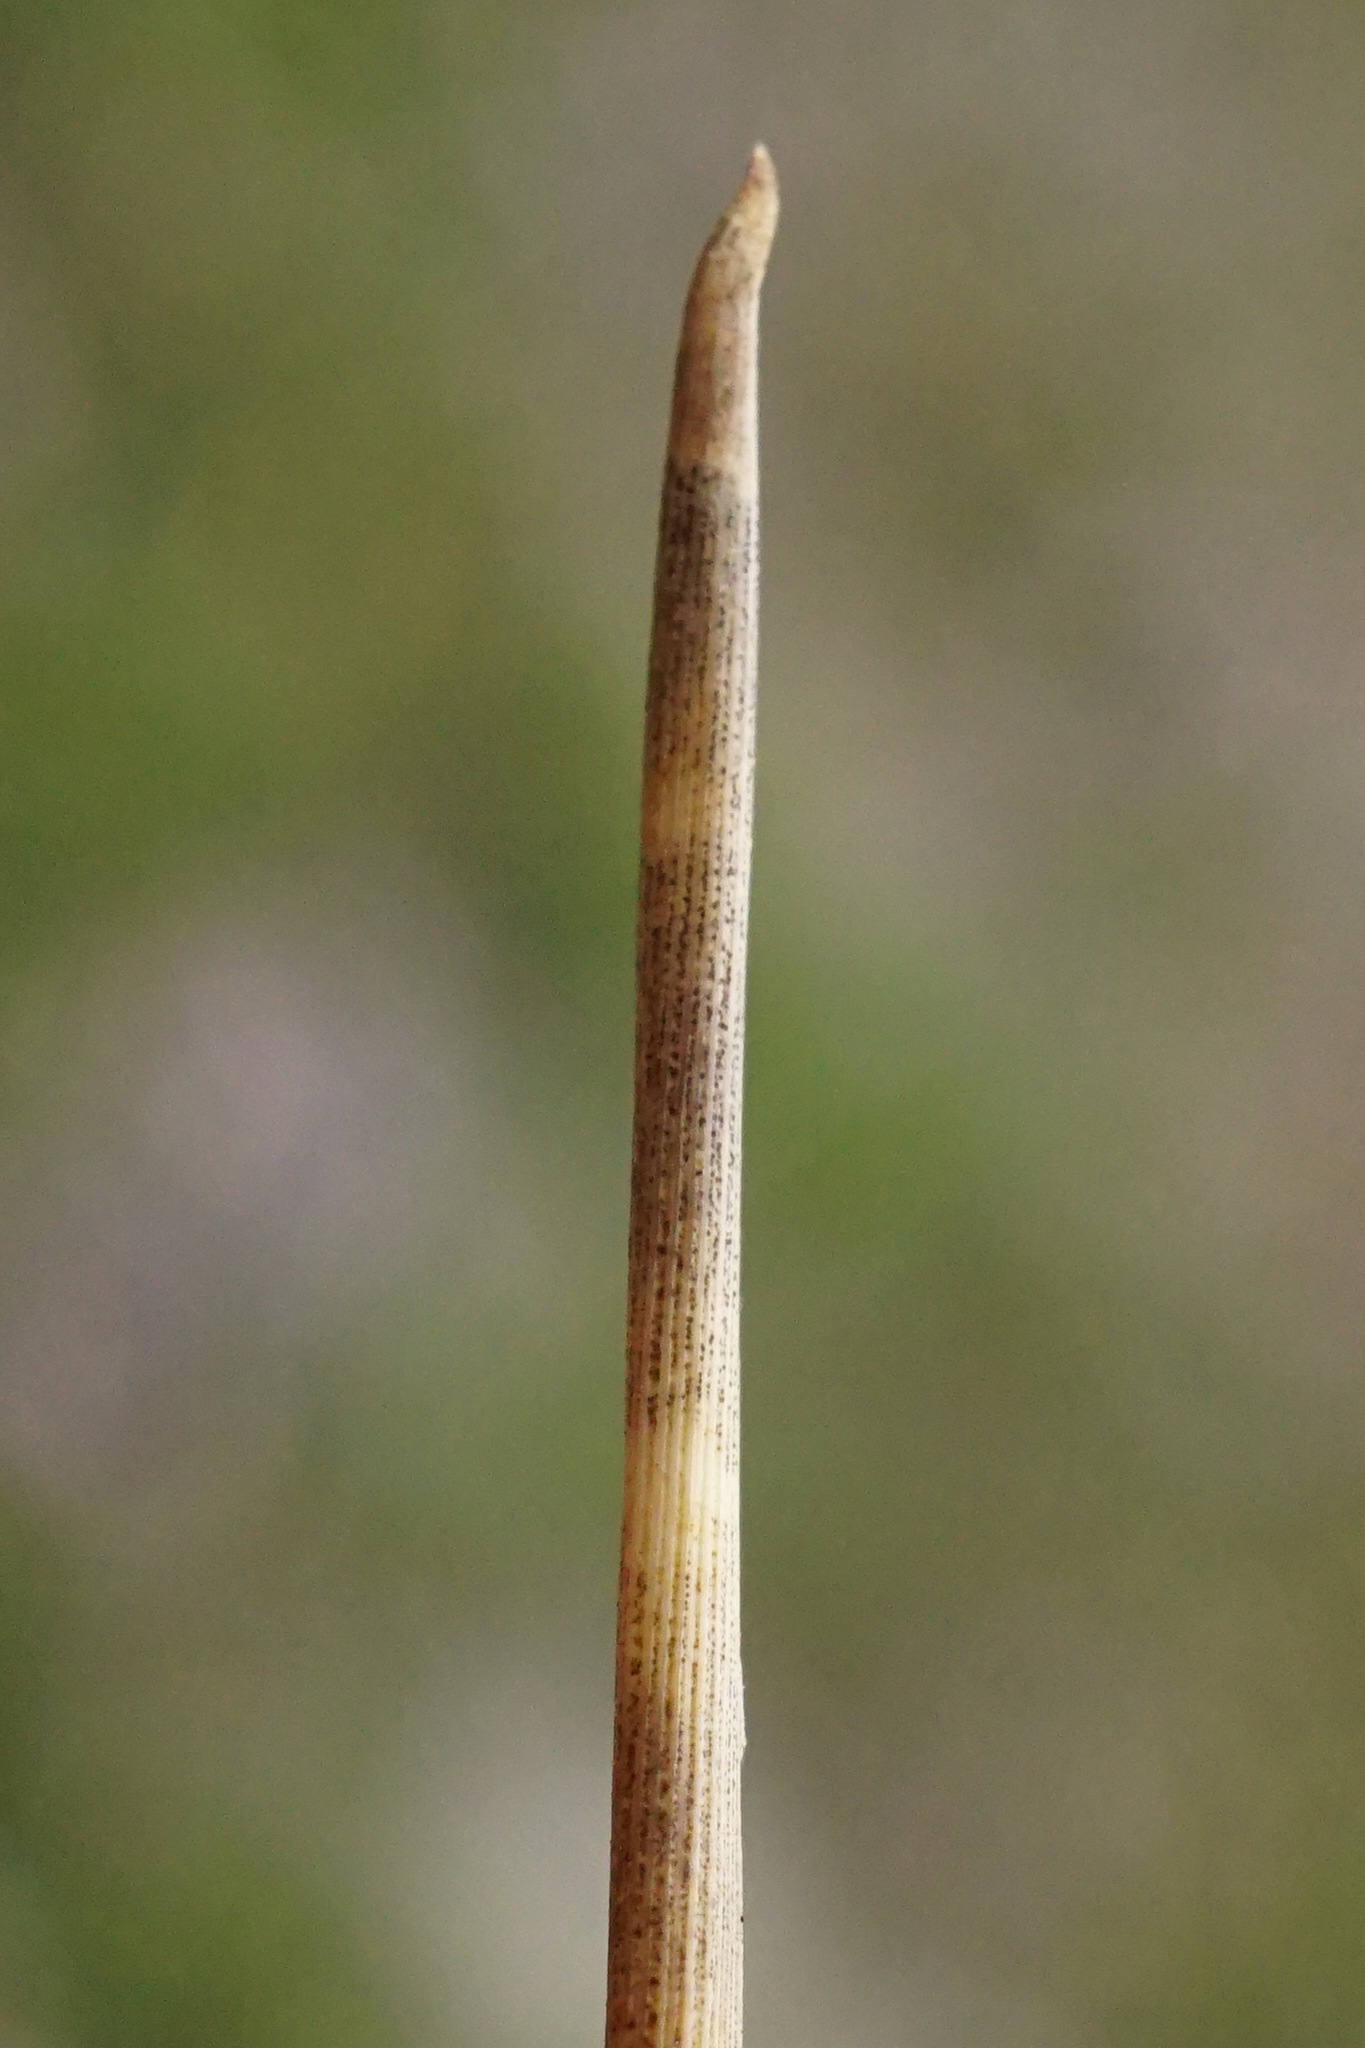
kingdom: Plantae
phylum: Tracheophyta
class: Liliopsida
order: Poales
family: Juncaceae
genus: Juncus
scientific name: Juncus maritimus
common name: Sea rush
